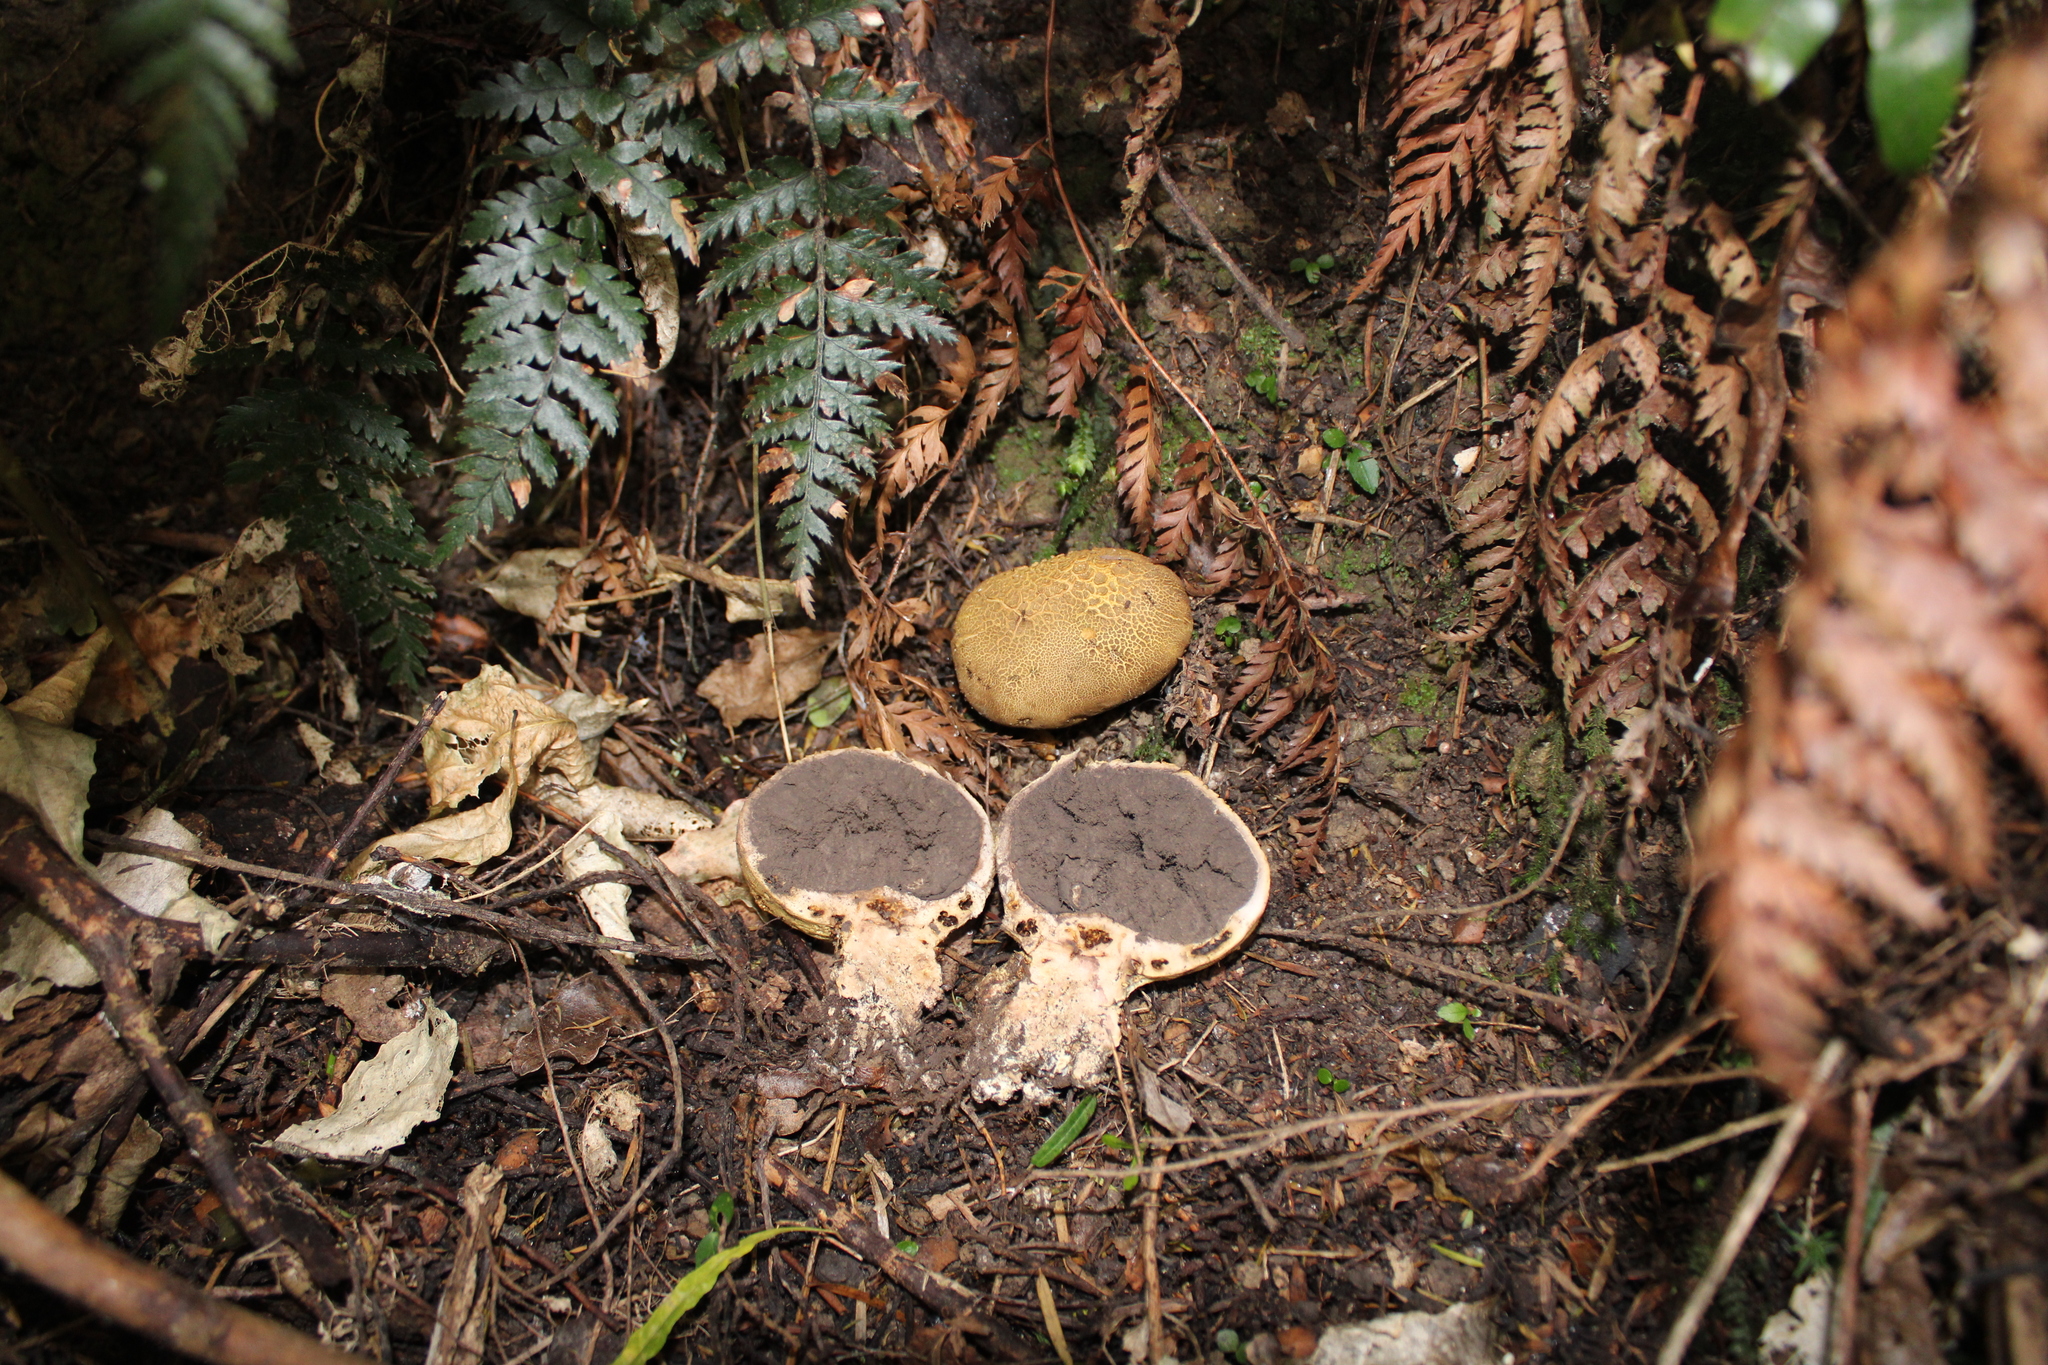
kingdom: Fungi
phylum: Basidiomycota
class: Agaricomycetes
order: Boletales
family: Sclerodermataceae
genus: Scleroderma
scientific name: Scleroderma
